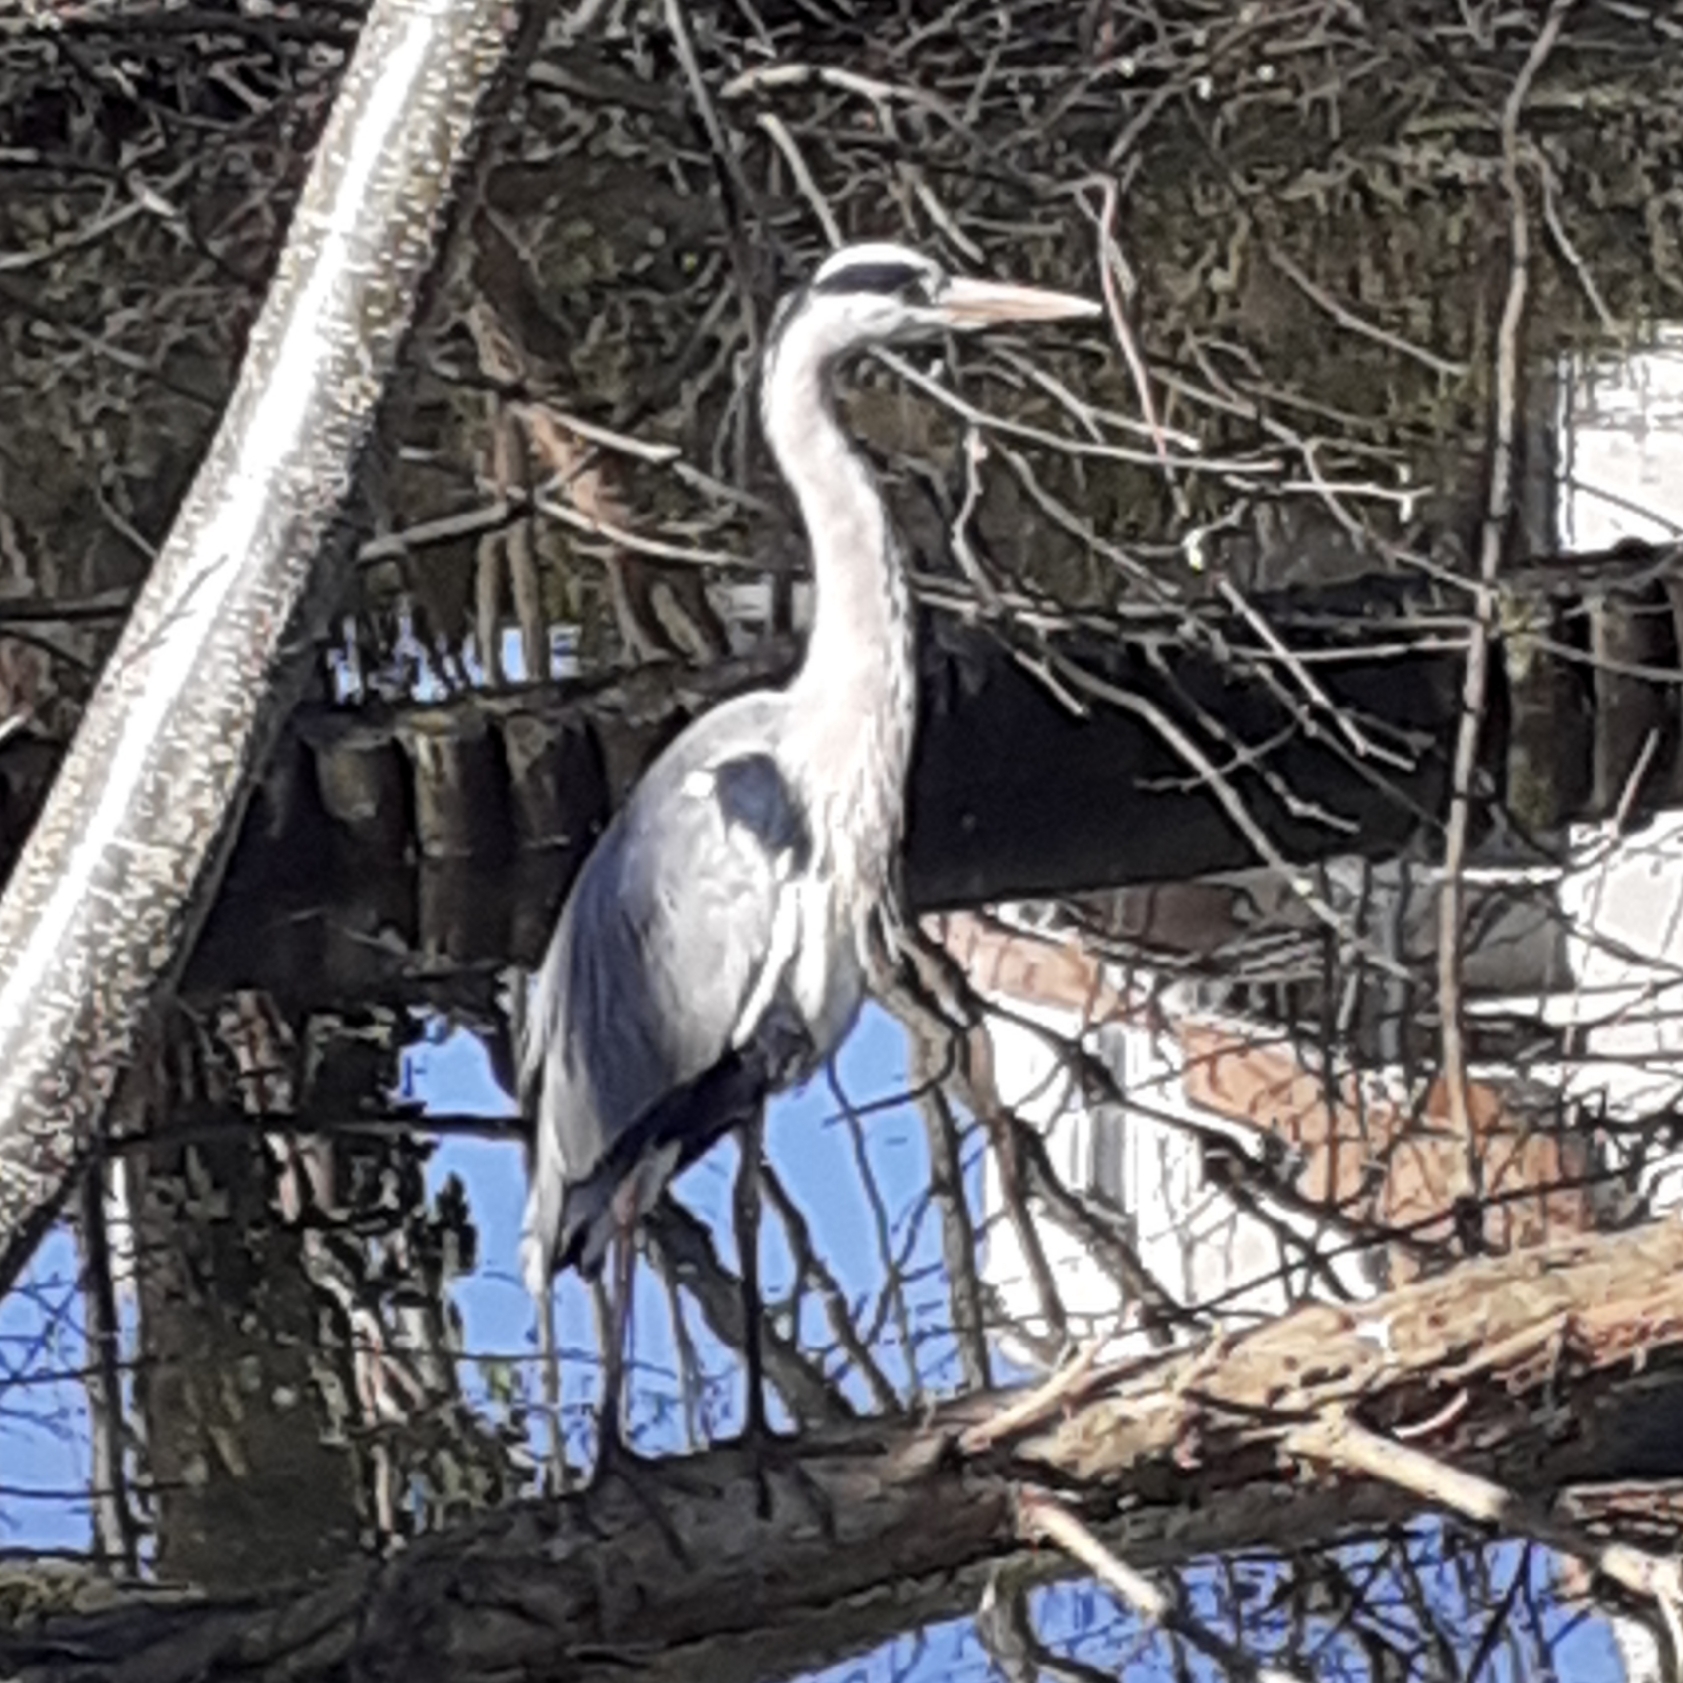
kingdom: Animalia
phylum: Chordata
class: Aves
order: Pelecaniformes
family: Ardeidae
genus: Ardea
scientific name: Ardea cinerea
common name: Grey heron
